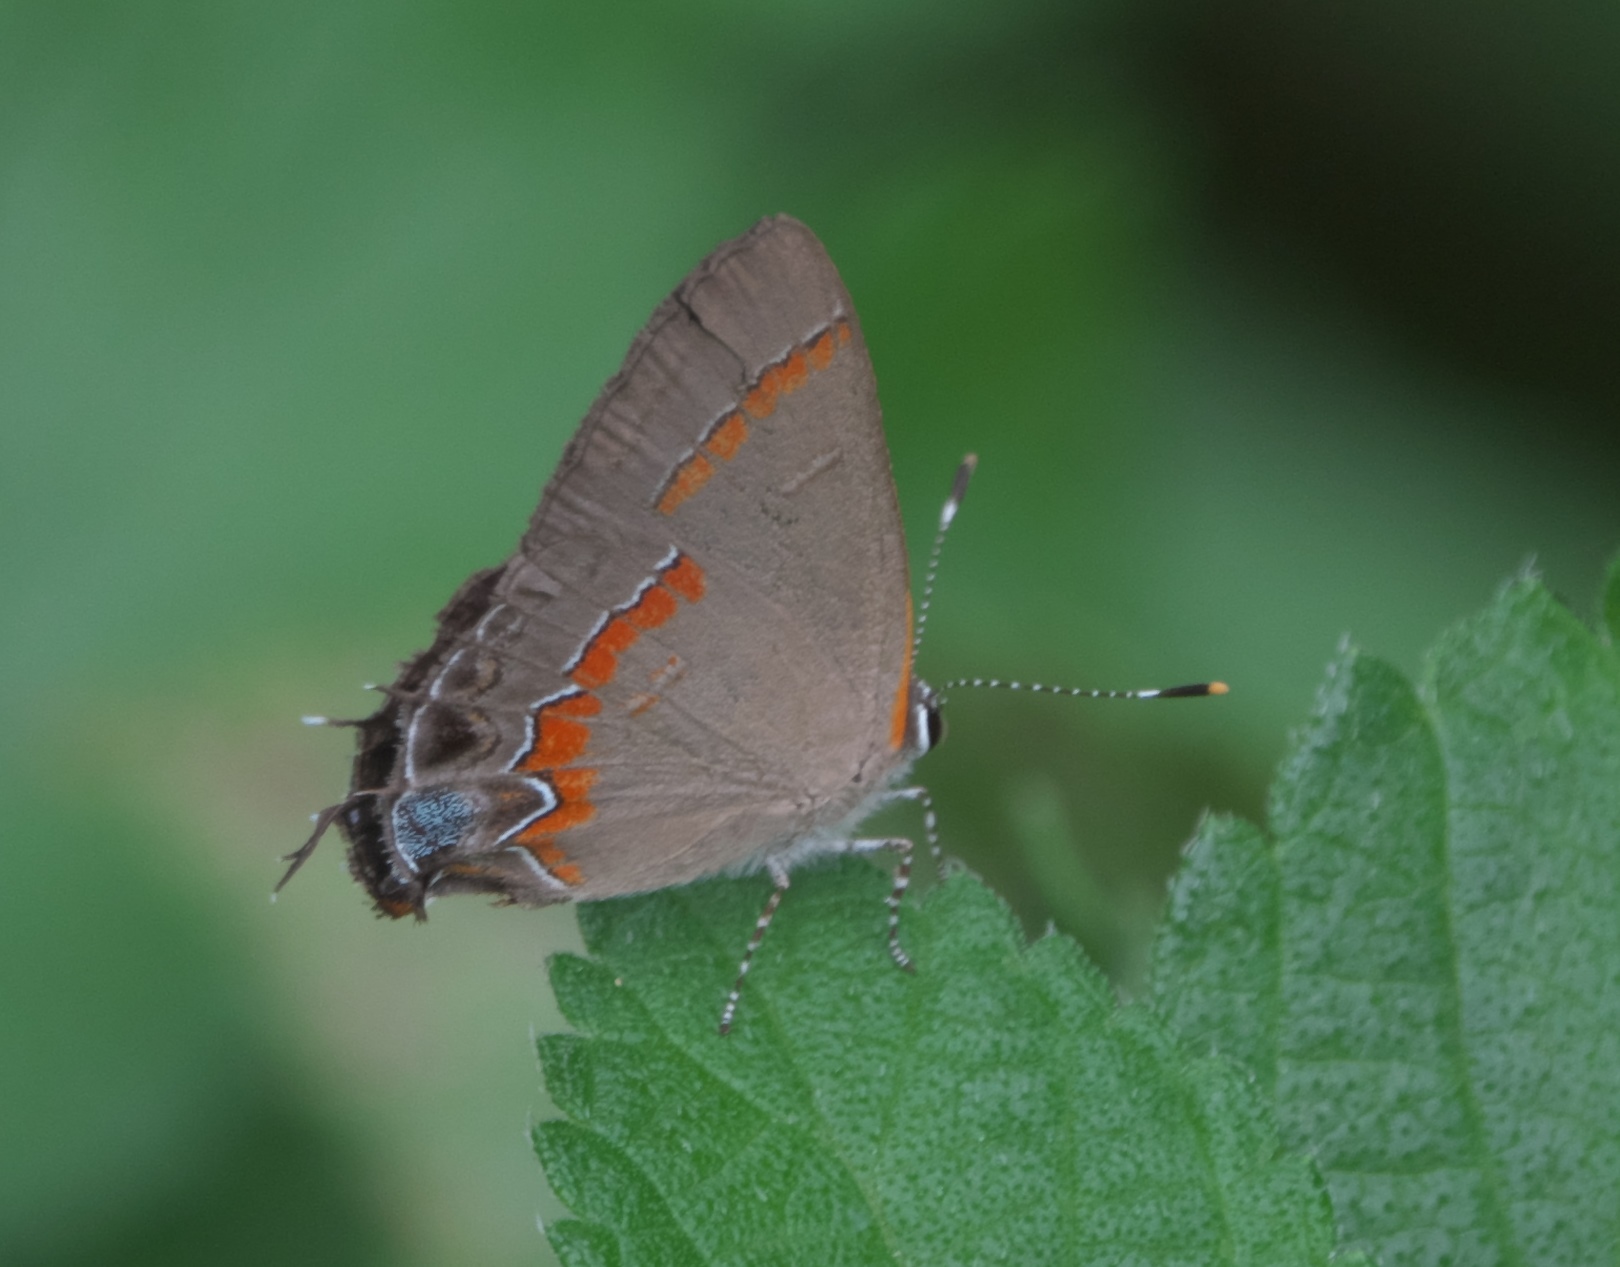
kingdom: Animalia
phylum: Arthropoda
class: Insecta
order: Lepidoptera
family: Lycaenidae
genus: Calycopis
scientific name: Calycopis cecrops
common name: Red-banded hairstreak
